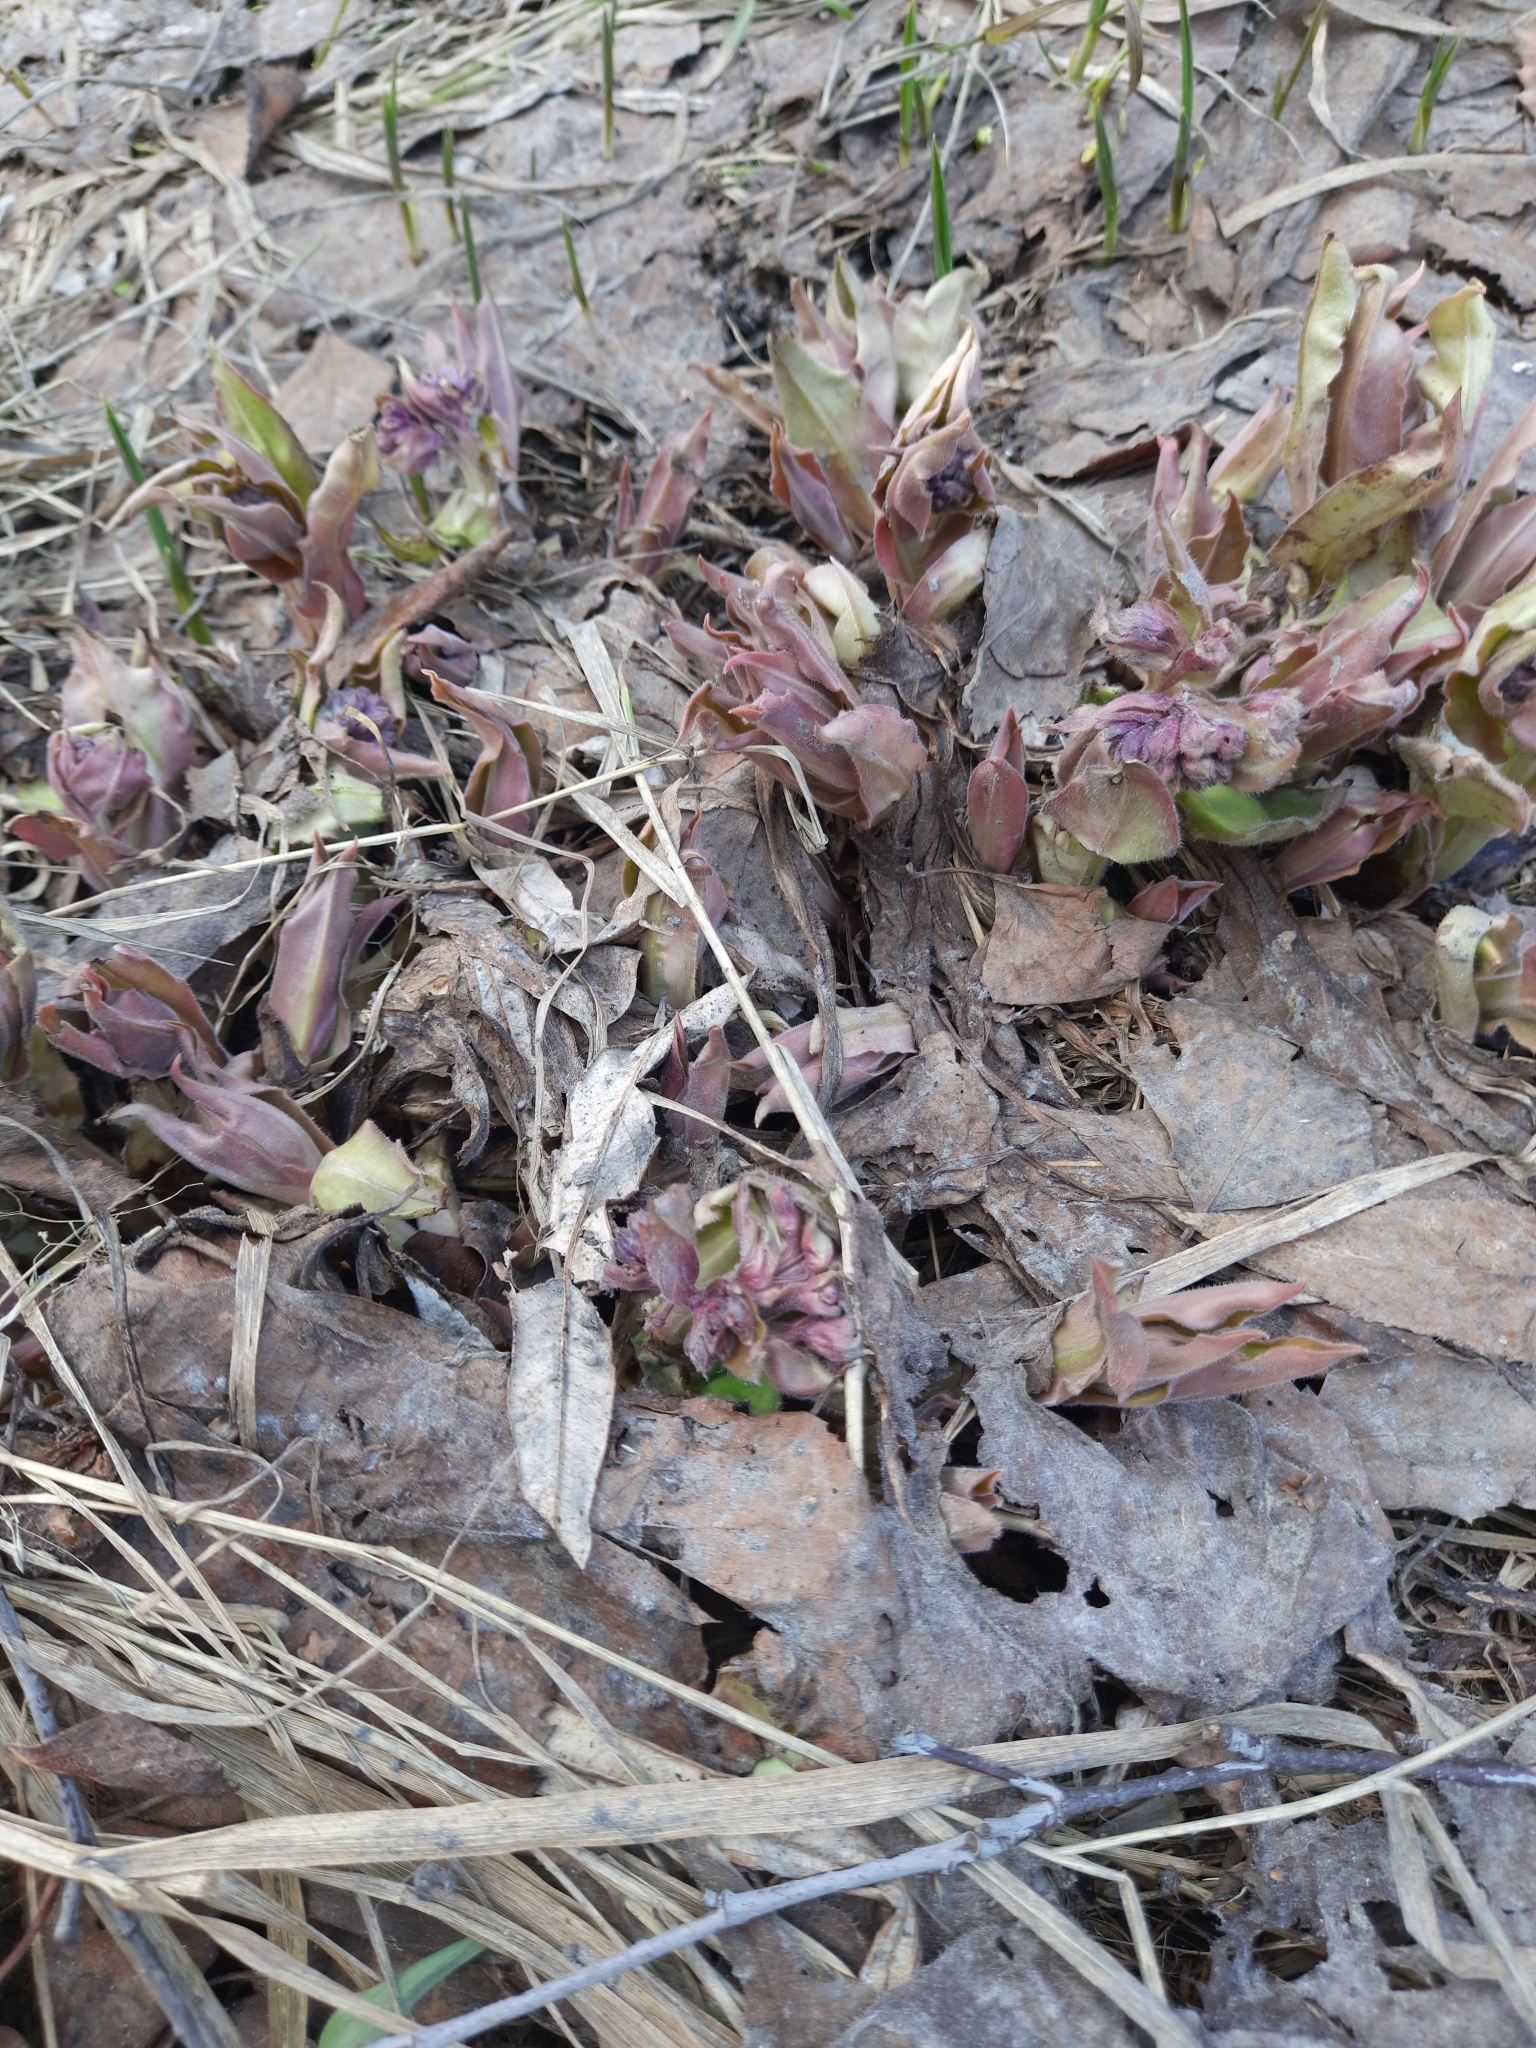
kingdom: Plantae
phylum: Tracheophyta
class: Magnoliopsida
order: Boraginales
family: Boraginaceae
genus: Pulmonaria
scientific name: Pulmonaria mollis
